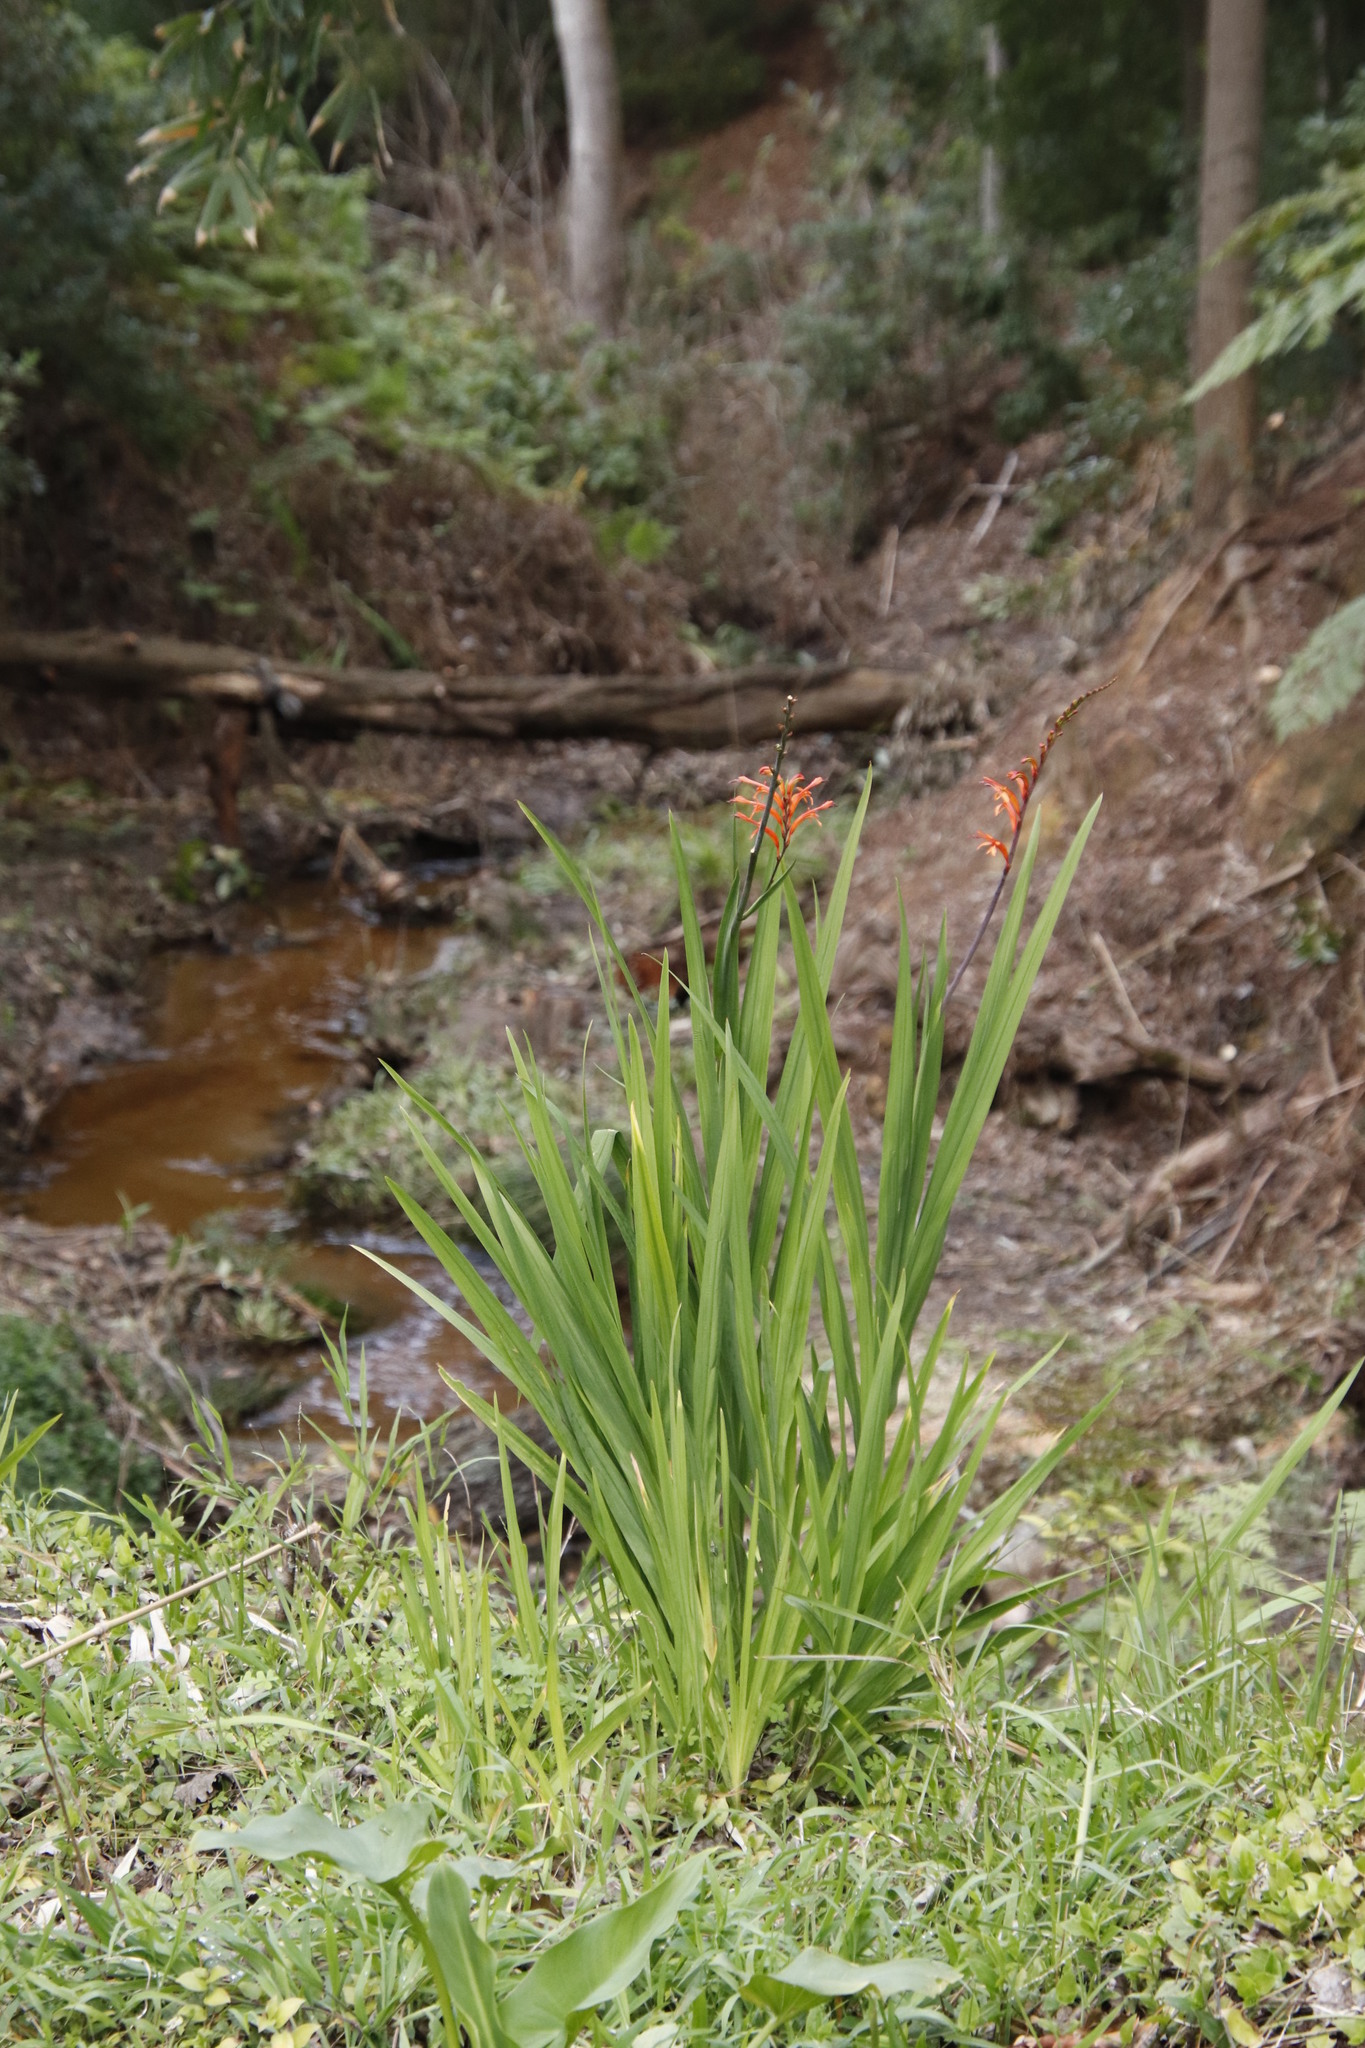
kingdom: Plantae
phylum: Tracheophyta
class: Liliopsida
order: Asparagales
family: Iridaceae
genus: Chasmanthe
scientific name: Chasmanthe floribunda
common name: African cornflag
